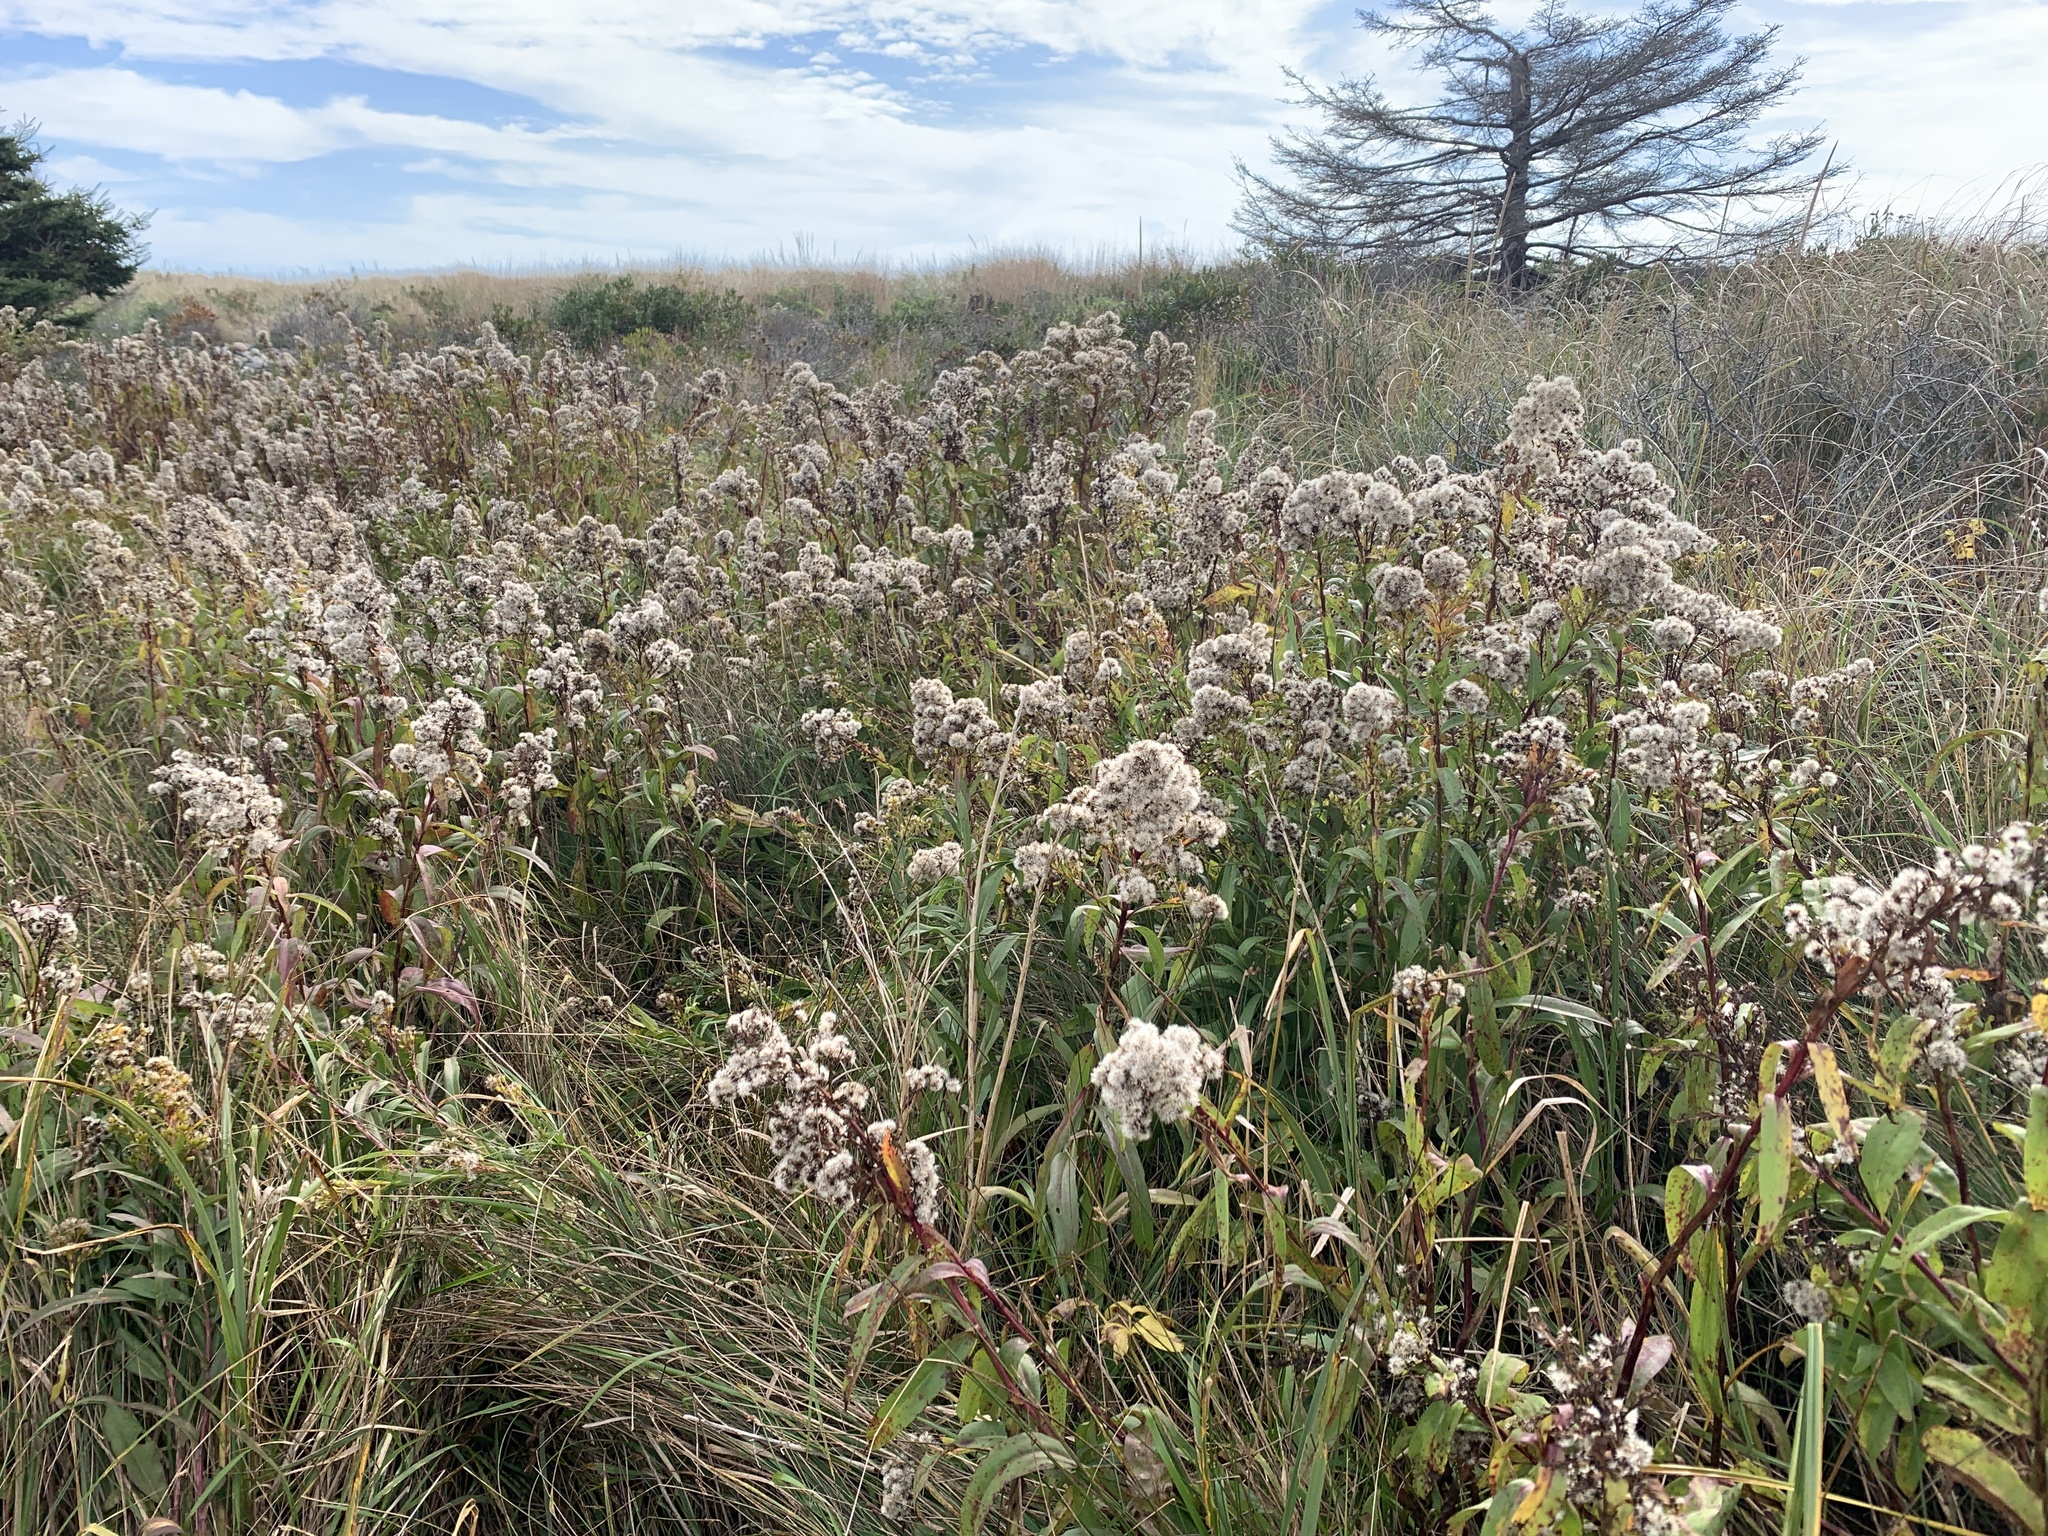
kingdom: Plantae
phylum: Tracheophyta
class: Magnoliopsida
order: Asterales
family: Asteraceae
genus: Solidago
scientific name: Solidago sempervirens
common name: Salt-marsh goldenrod
